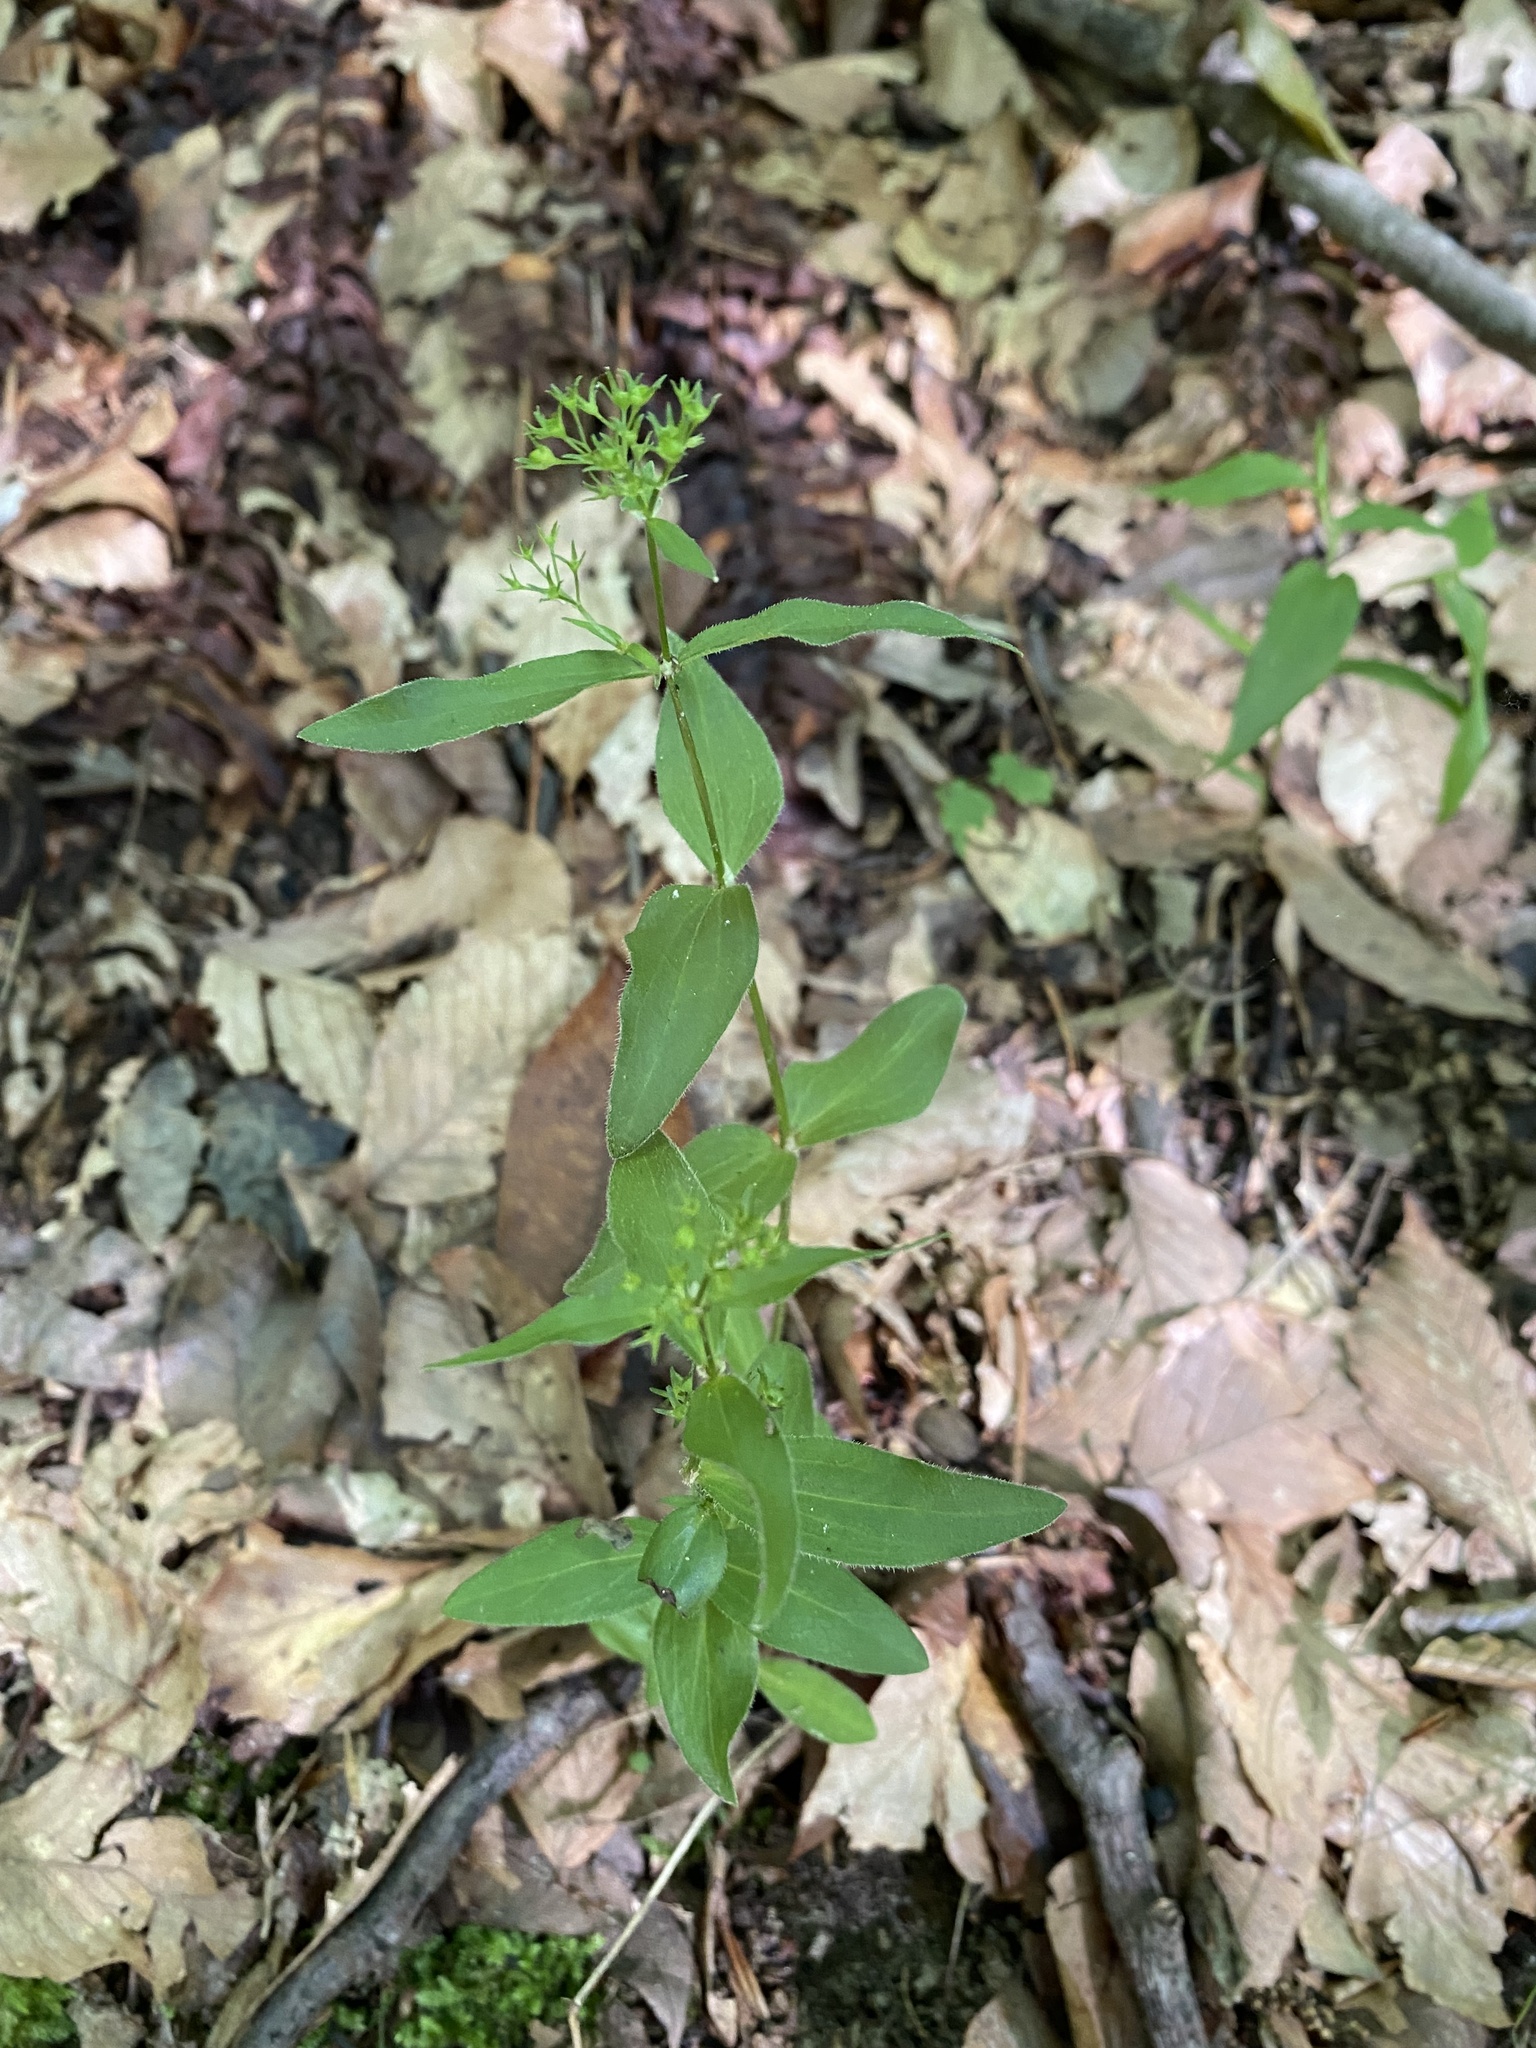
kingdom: Plantae
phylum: Tracheophyta
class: Magnoliopsida
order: Gentianales
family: Rubiaceae
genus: Houstonia
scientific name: Houstonia purpurea
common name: Summer bluet
